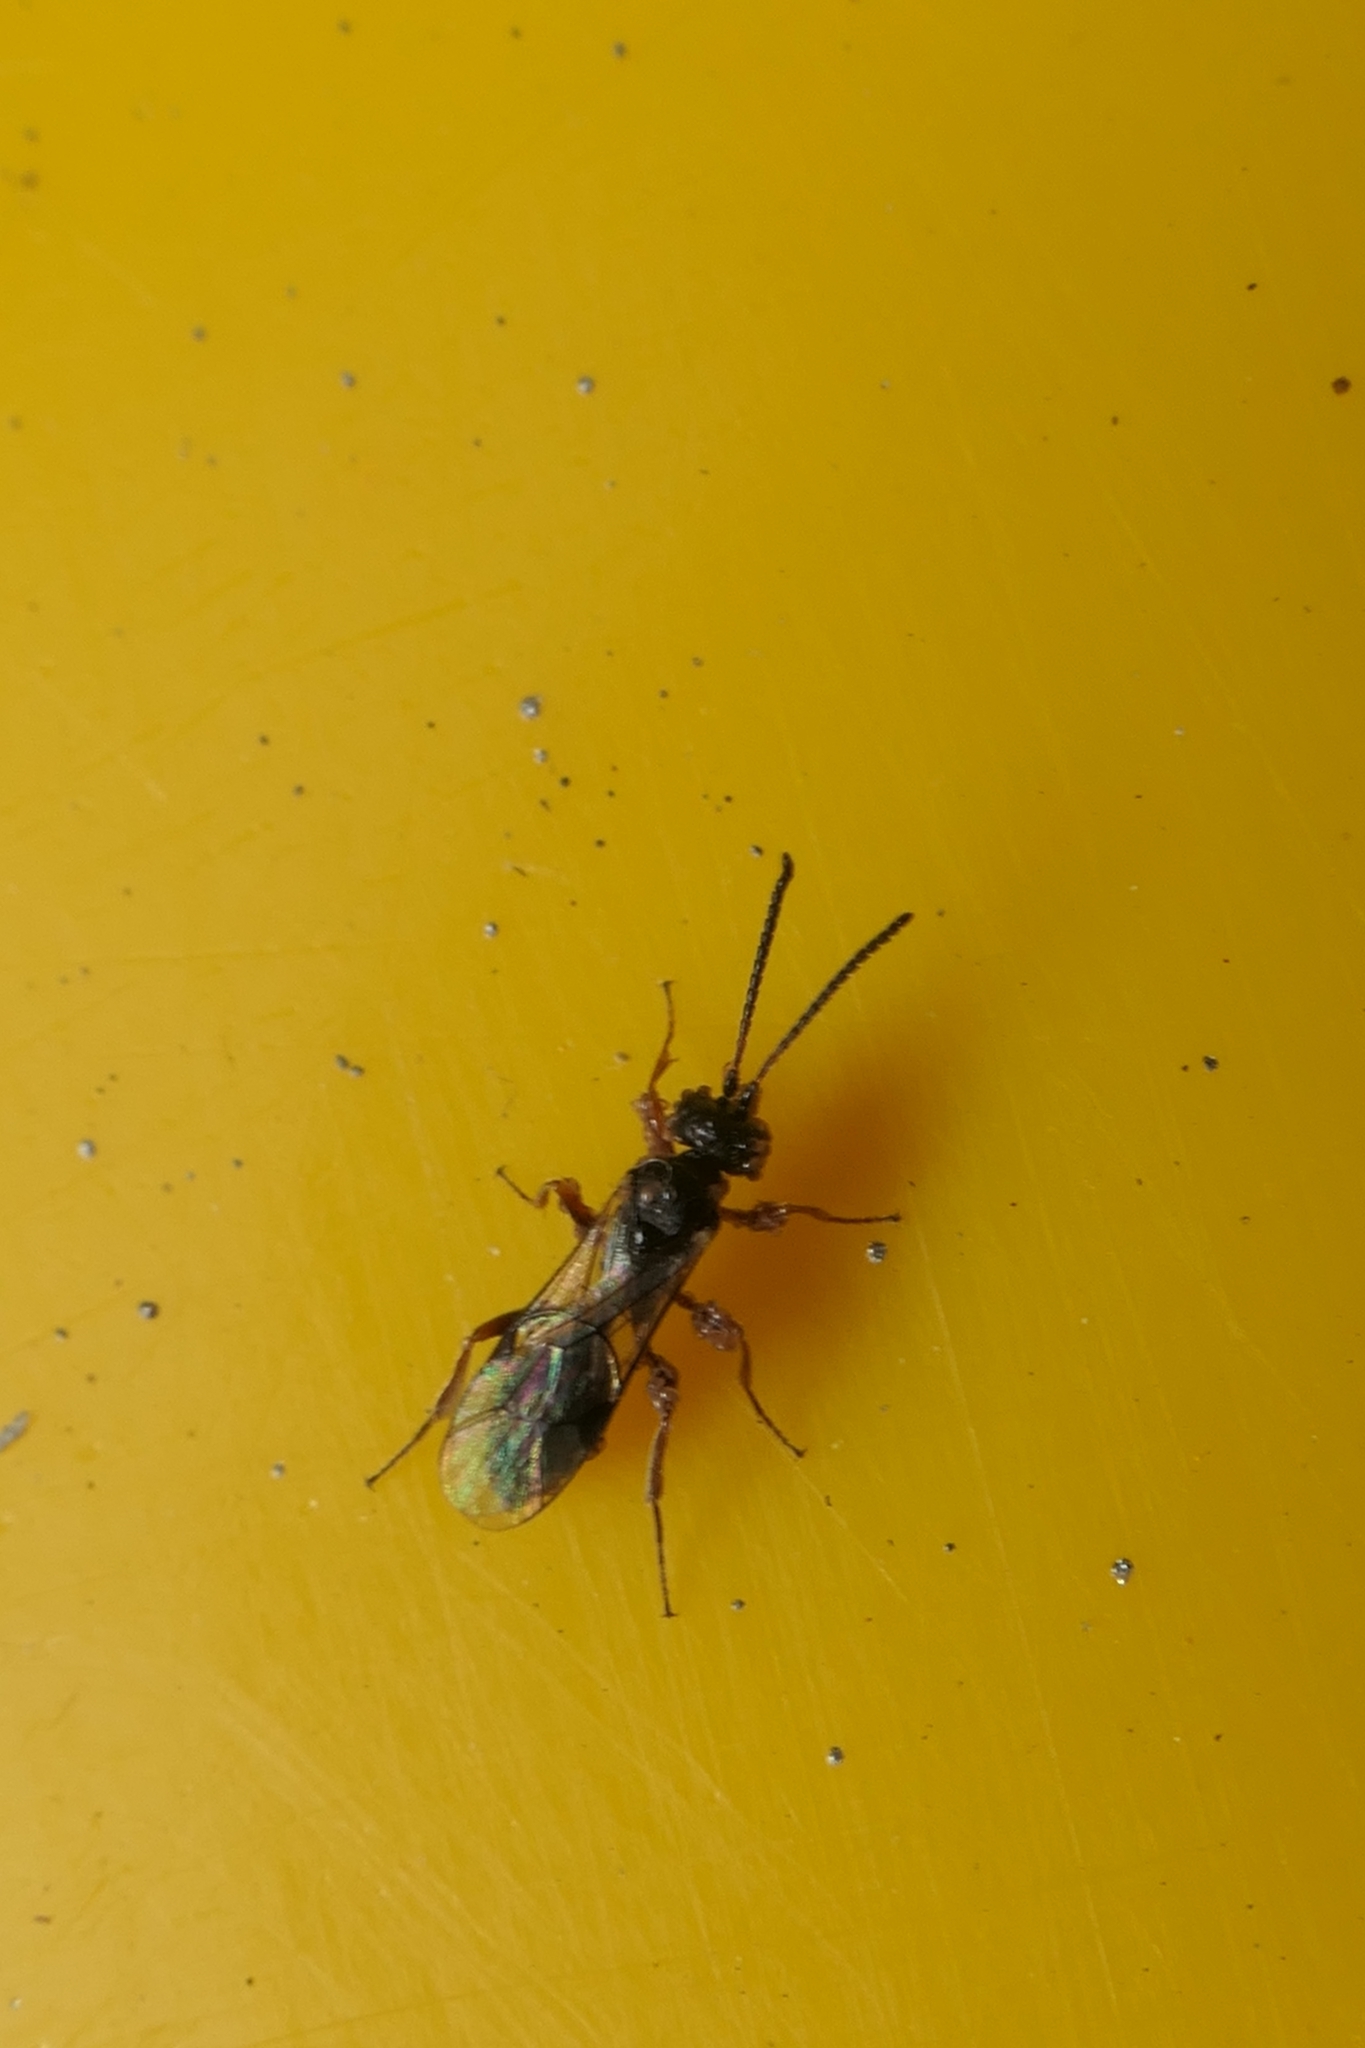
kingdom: Animalia
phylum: Arthropoda
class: Insecta
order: Hymenoptera
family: Braconidae
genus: Alysia
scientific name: Alysia manducator
